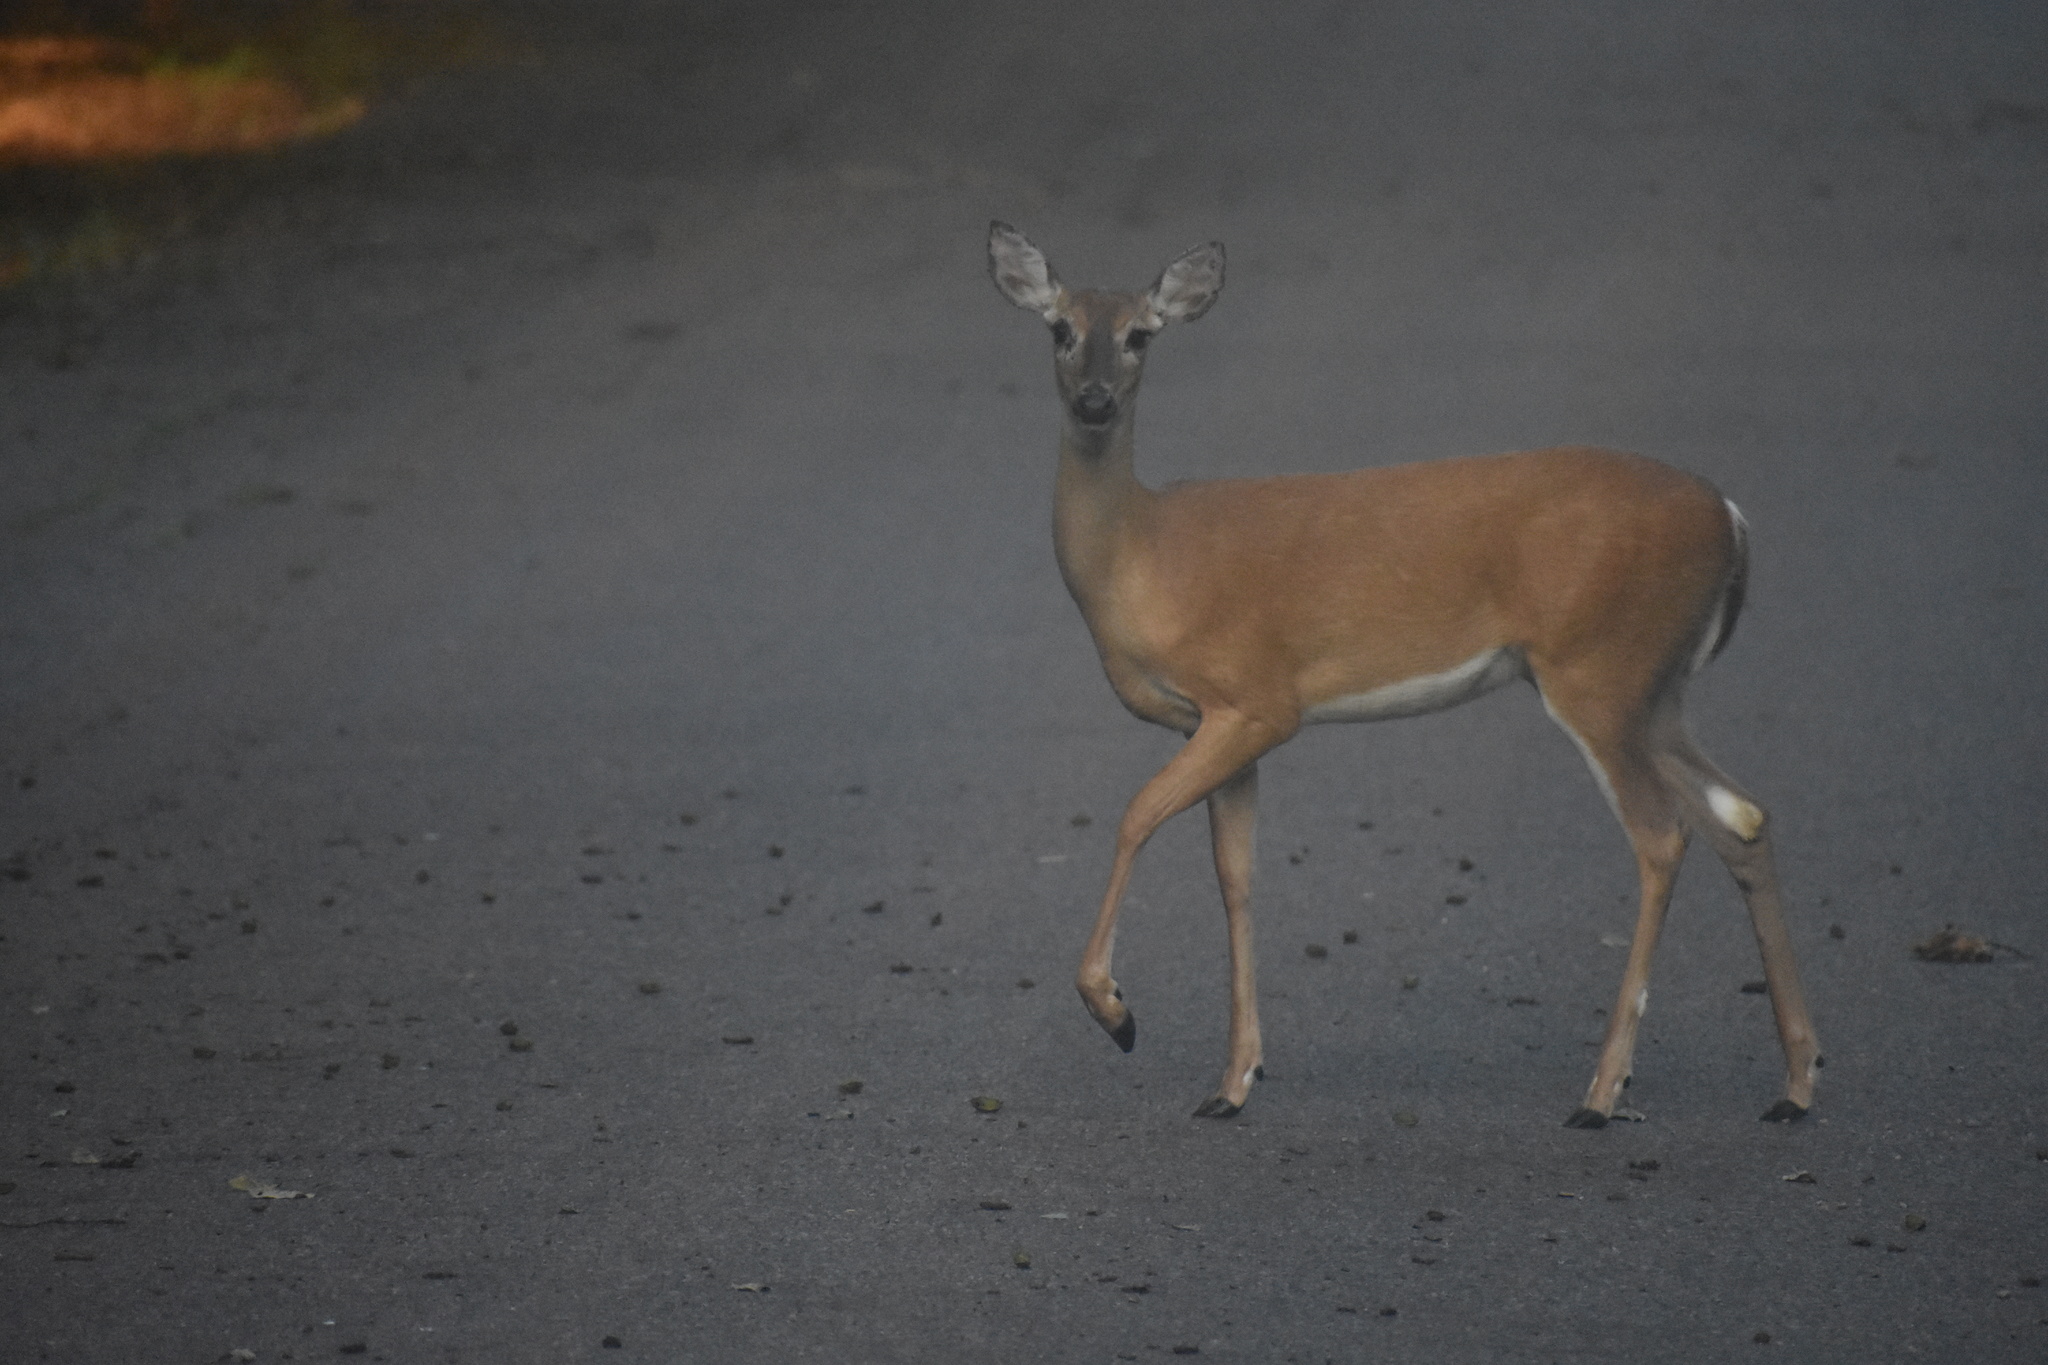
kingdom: Animalia
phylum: Chordata
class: Mammalia
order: Artiodactyla
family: Cervidae
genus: Odocoileus
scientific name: Odocoileus virginianus
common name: White-tailed deer
